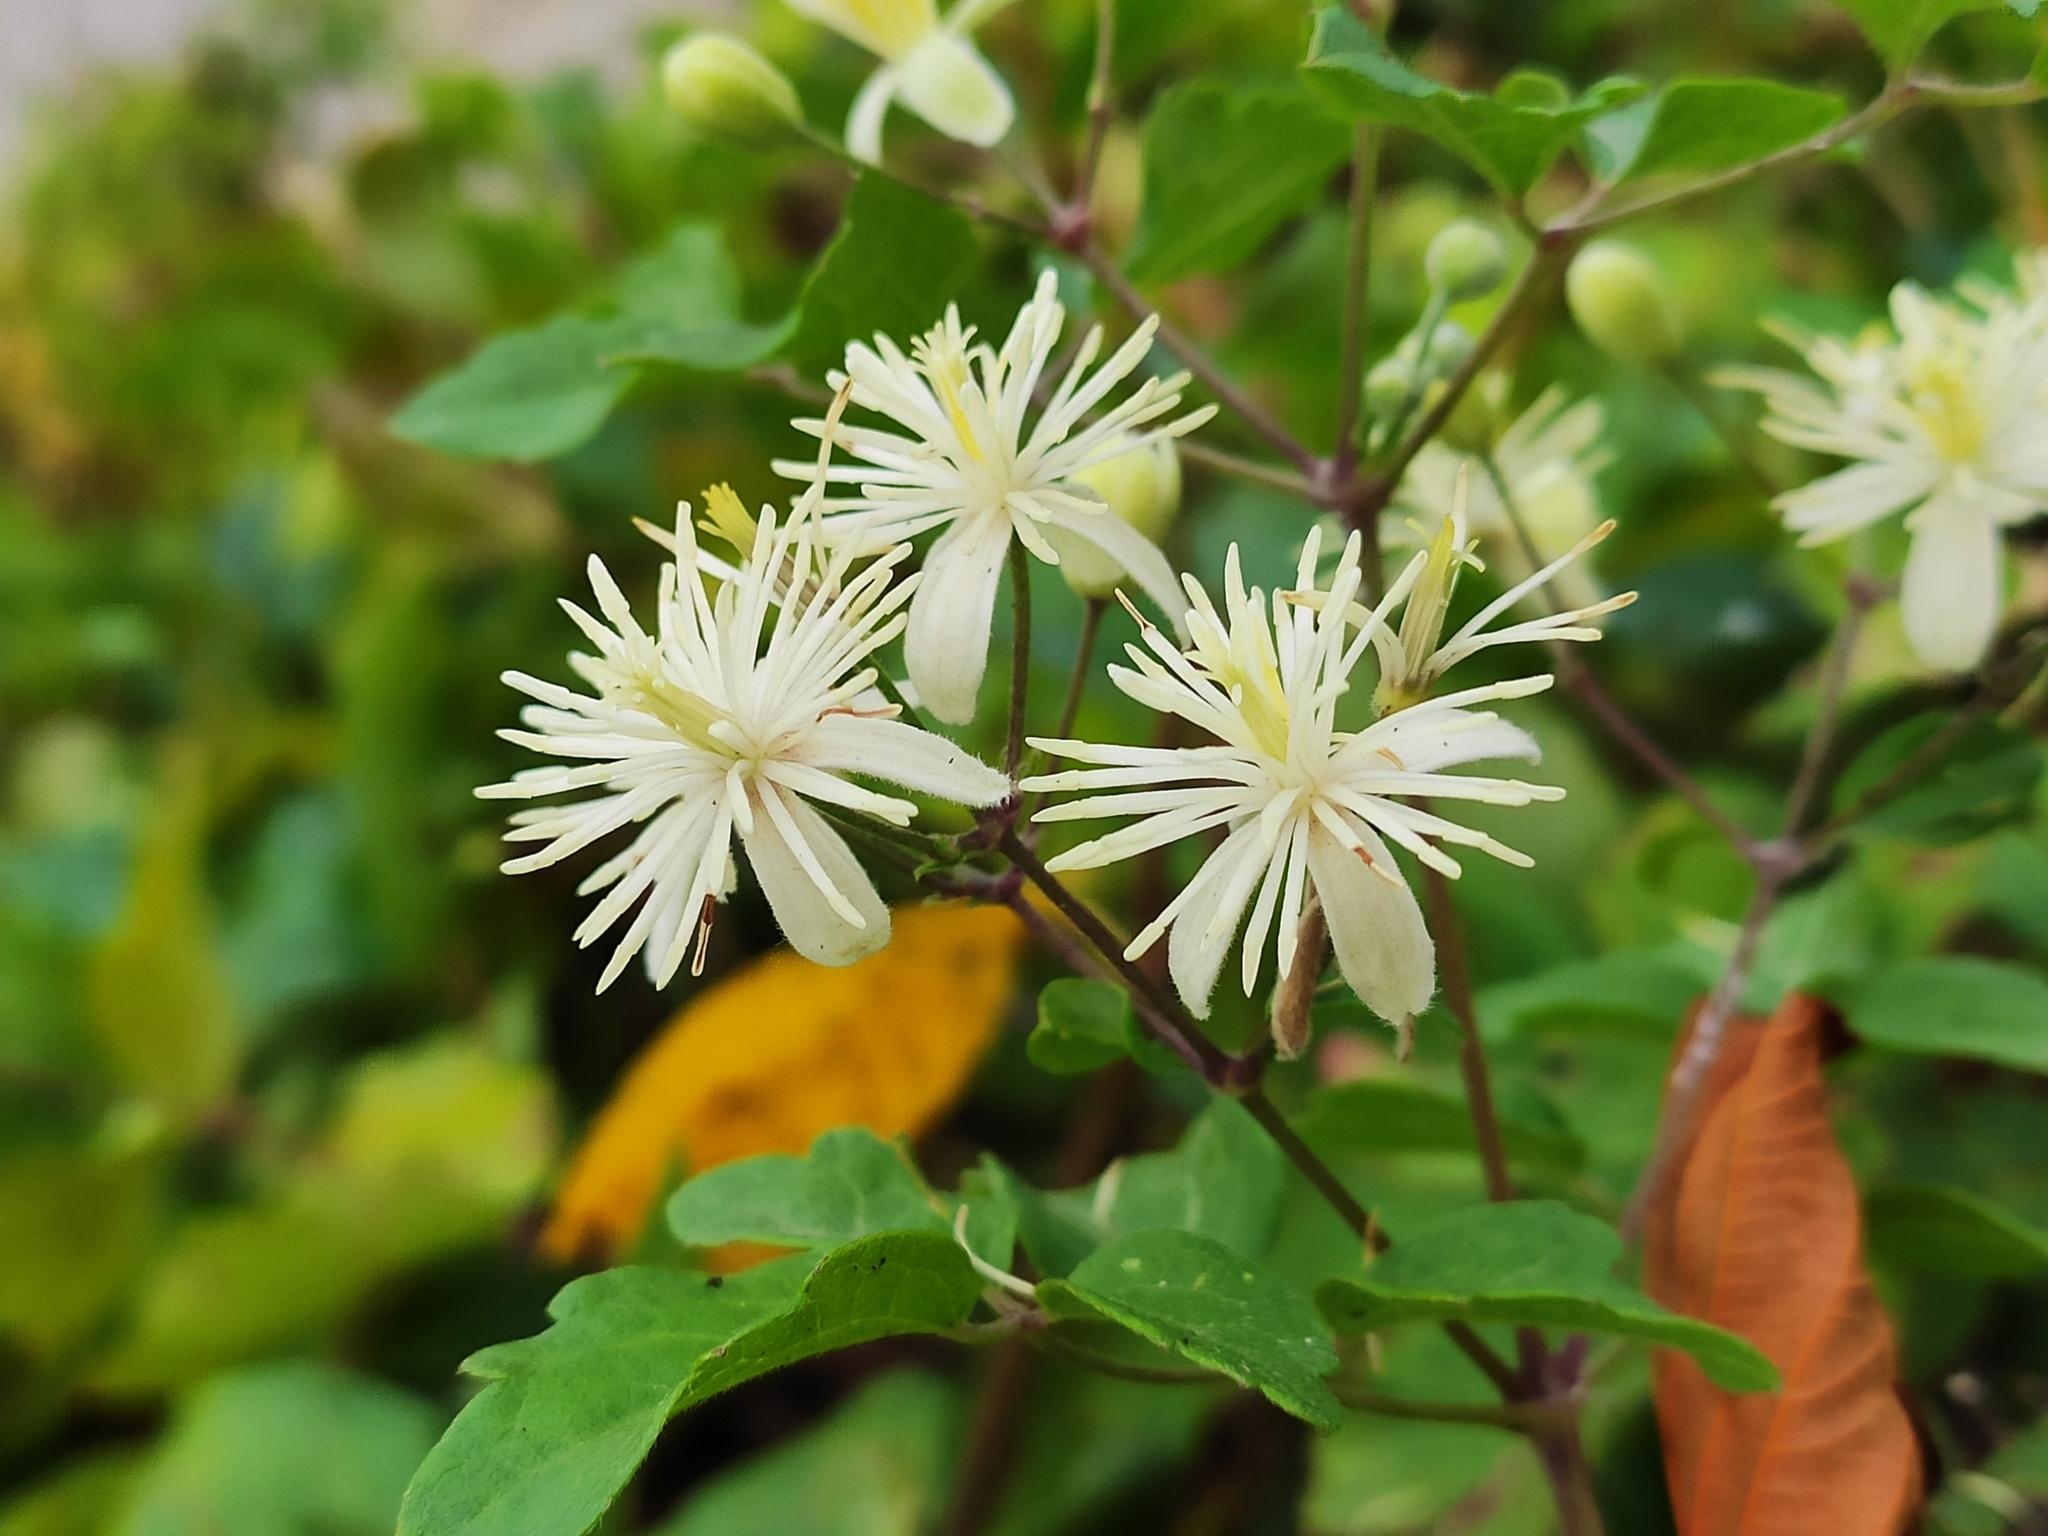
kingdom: Plantae
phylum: Tracheophyta
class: Magnoliopsida
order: Ranunculales
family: Ranunculaceae
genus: Clematis
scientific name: Clematis vitalba
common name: Evergreen clematis
